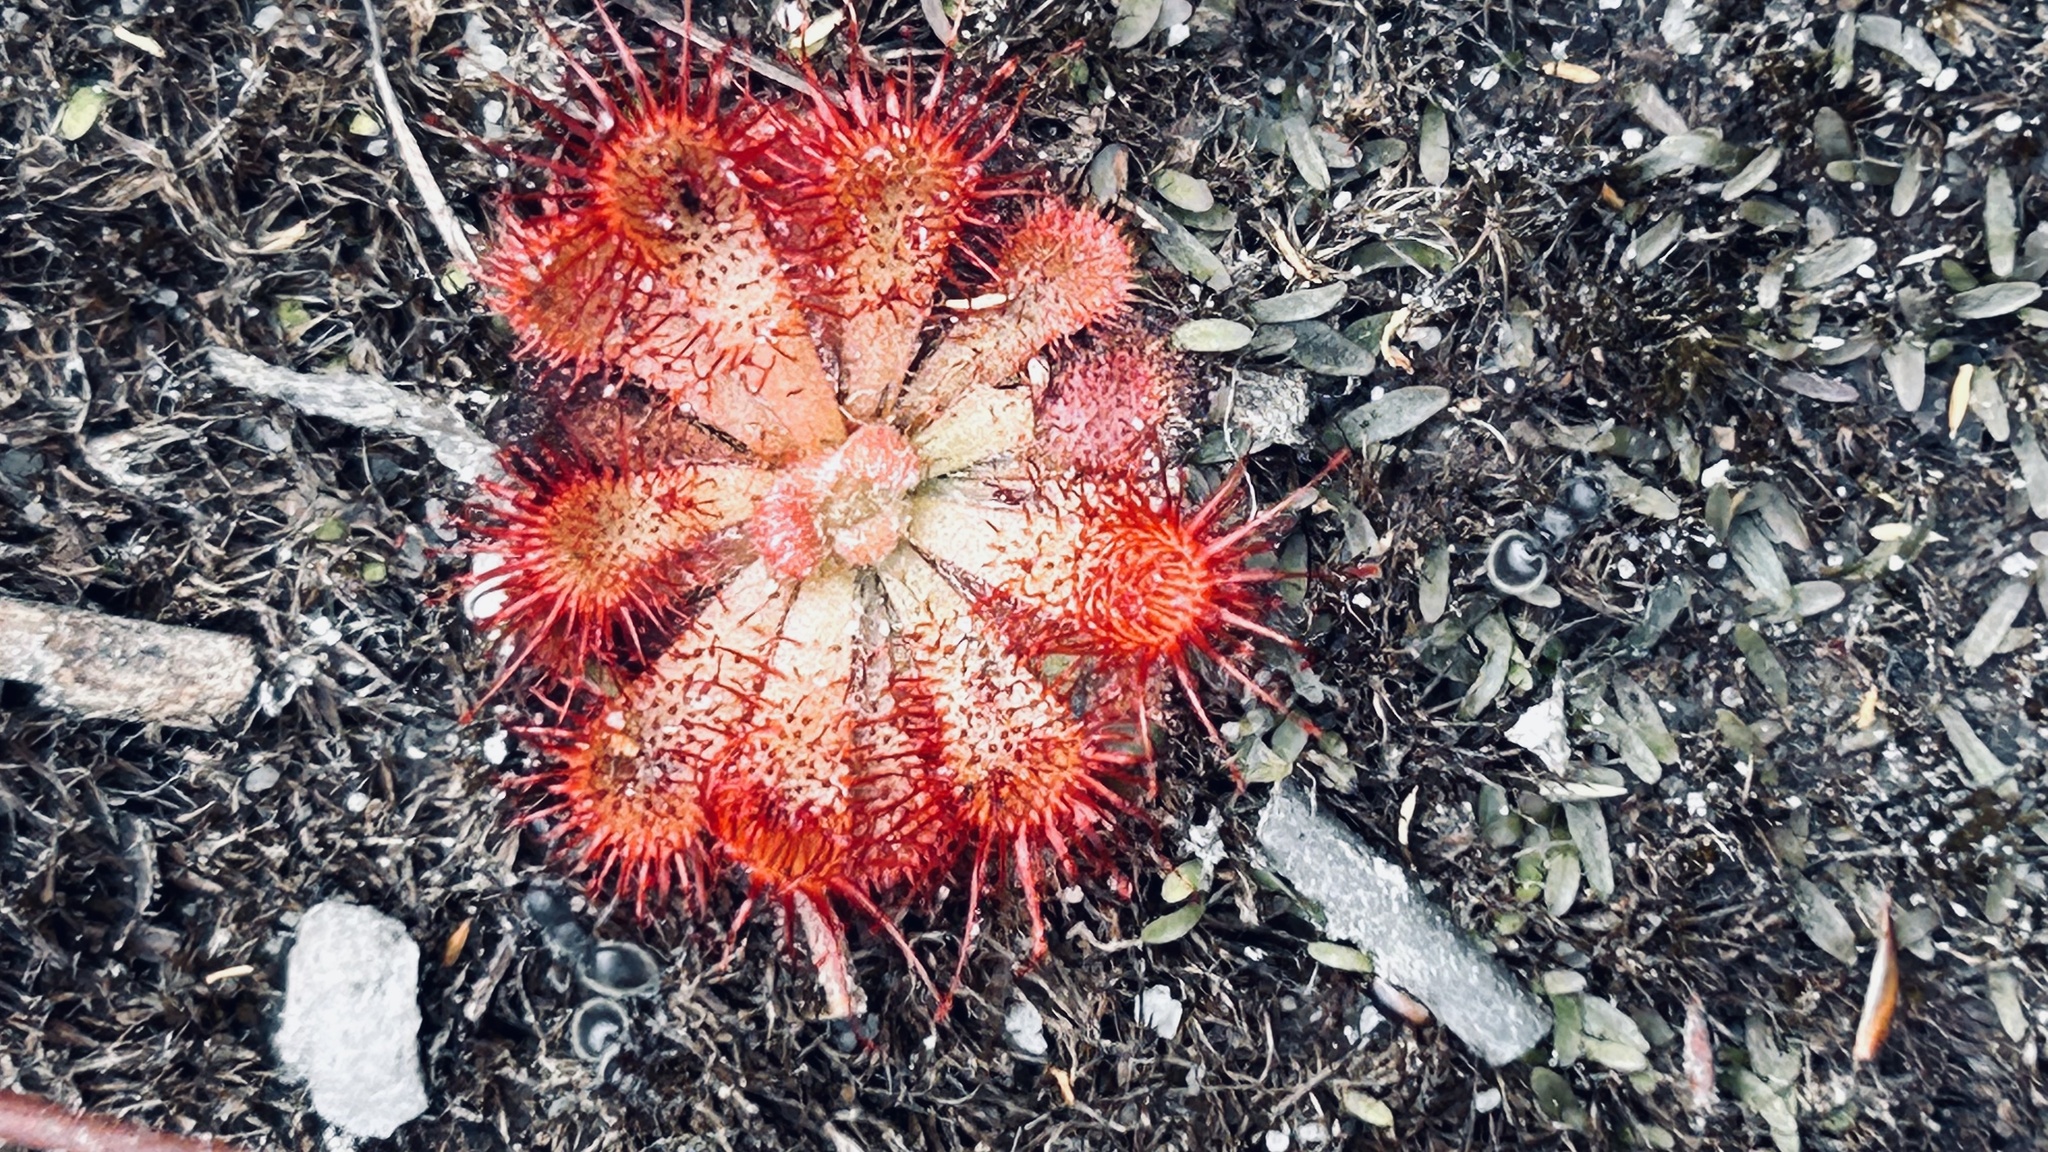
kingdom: Plantae
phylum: Tracheophyta
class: Magnoliopsida
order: Caryophyllales
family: Droseraceae
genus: Drosera
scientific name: Drosera aliciae
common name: Alice sundew
